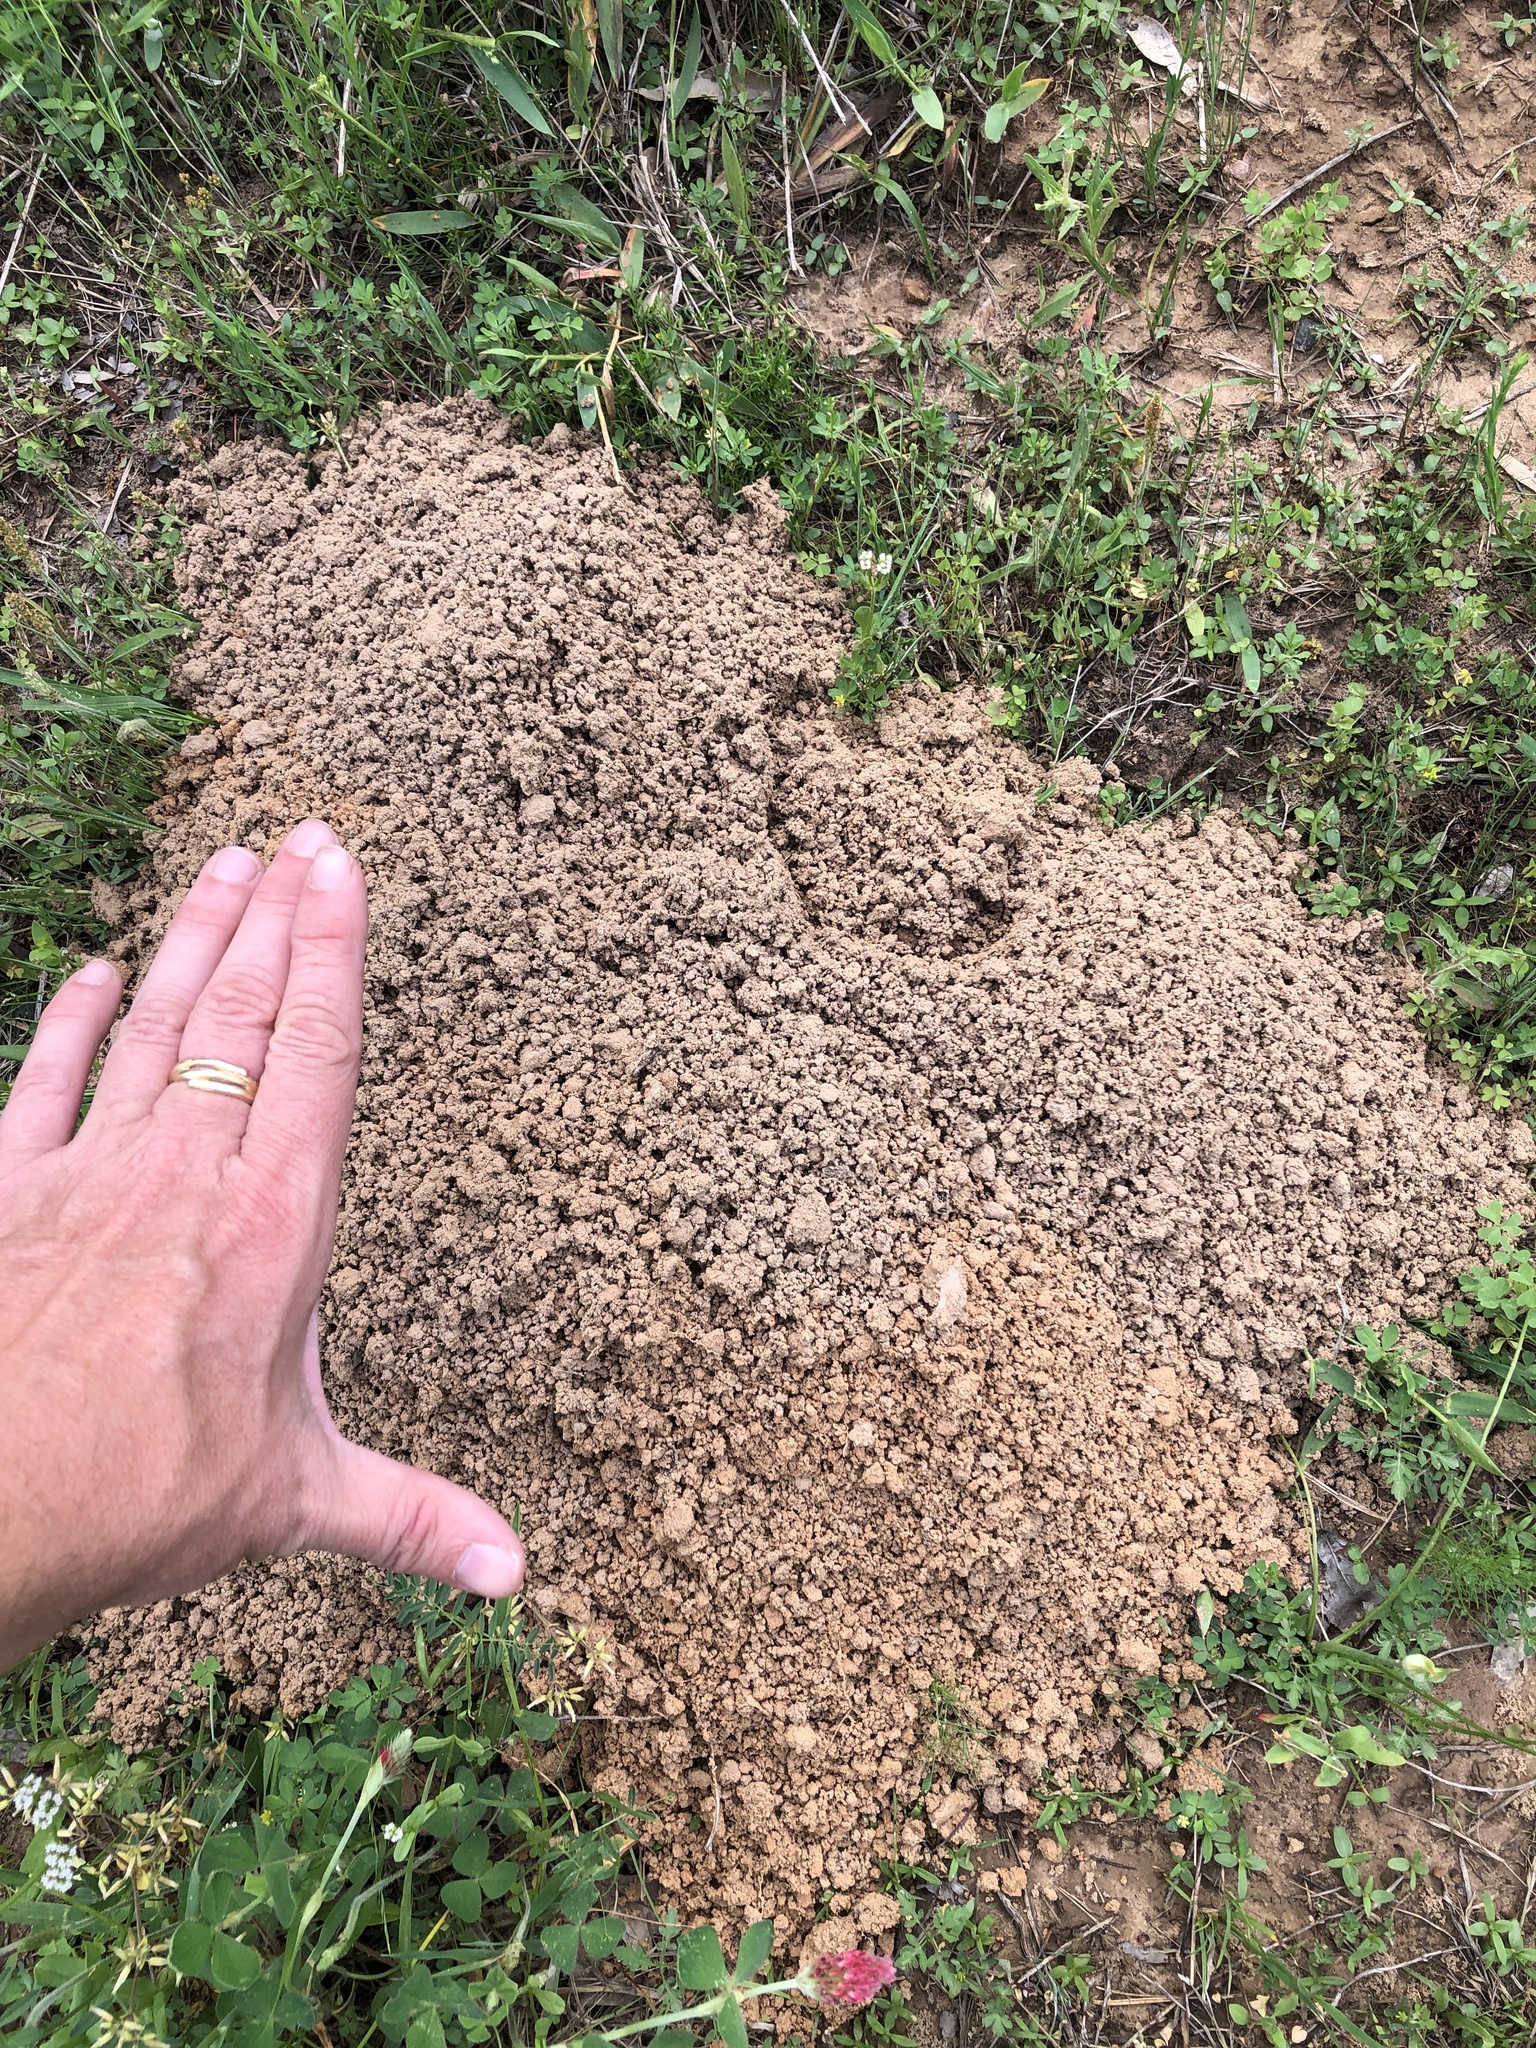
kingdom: Animalia
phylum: Chordata
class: Mammalia
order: Rodentia
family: Geomyidae
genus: Geomys
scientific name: Geomys breviceps
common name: Baird's pocket gopher
